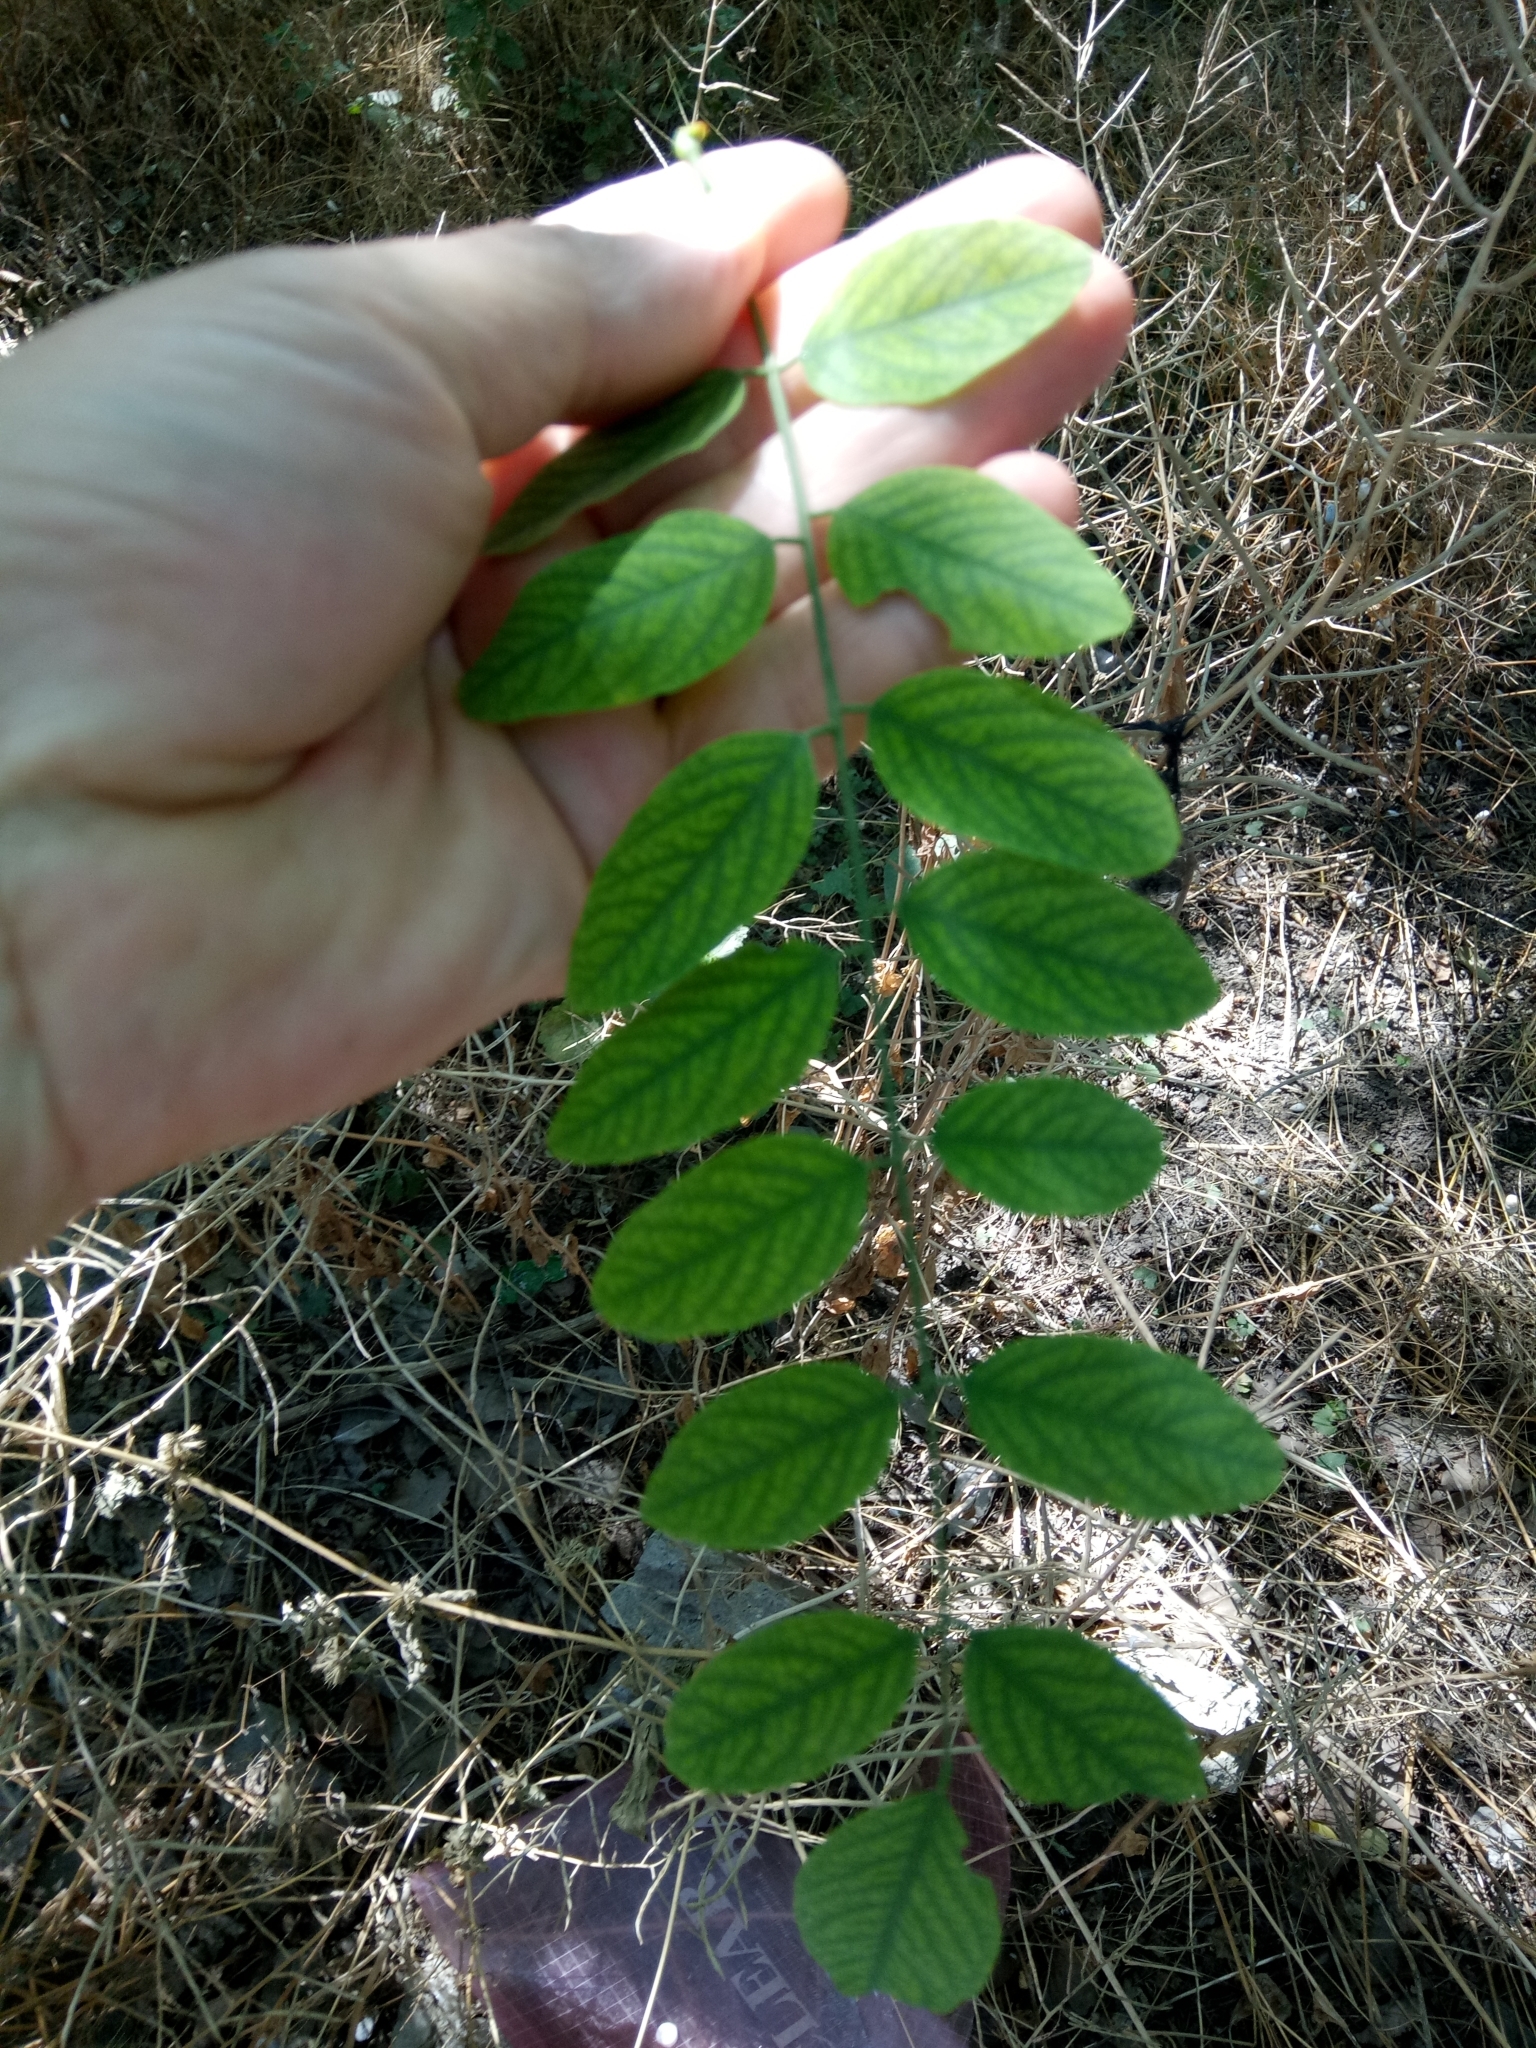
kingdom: Plantae
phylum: Tracheophyta
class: Magnoliopsida
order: Fabales
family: Fabaceae
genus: Robinia
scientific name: Robinia pseudoacacia
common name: Black locust
